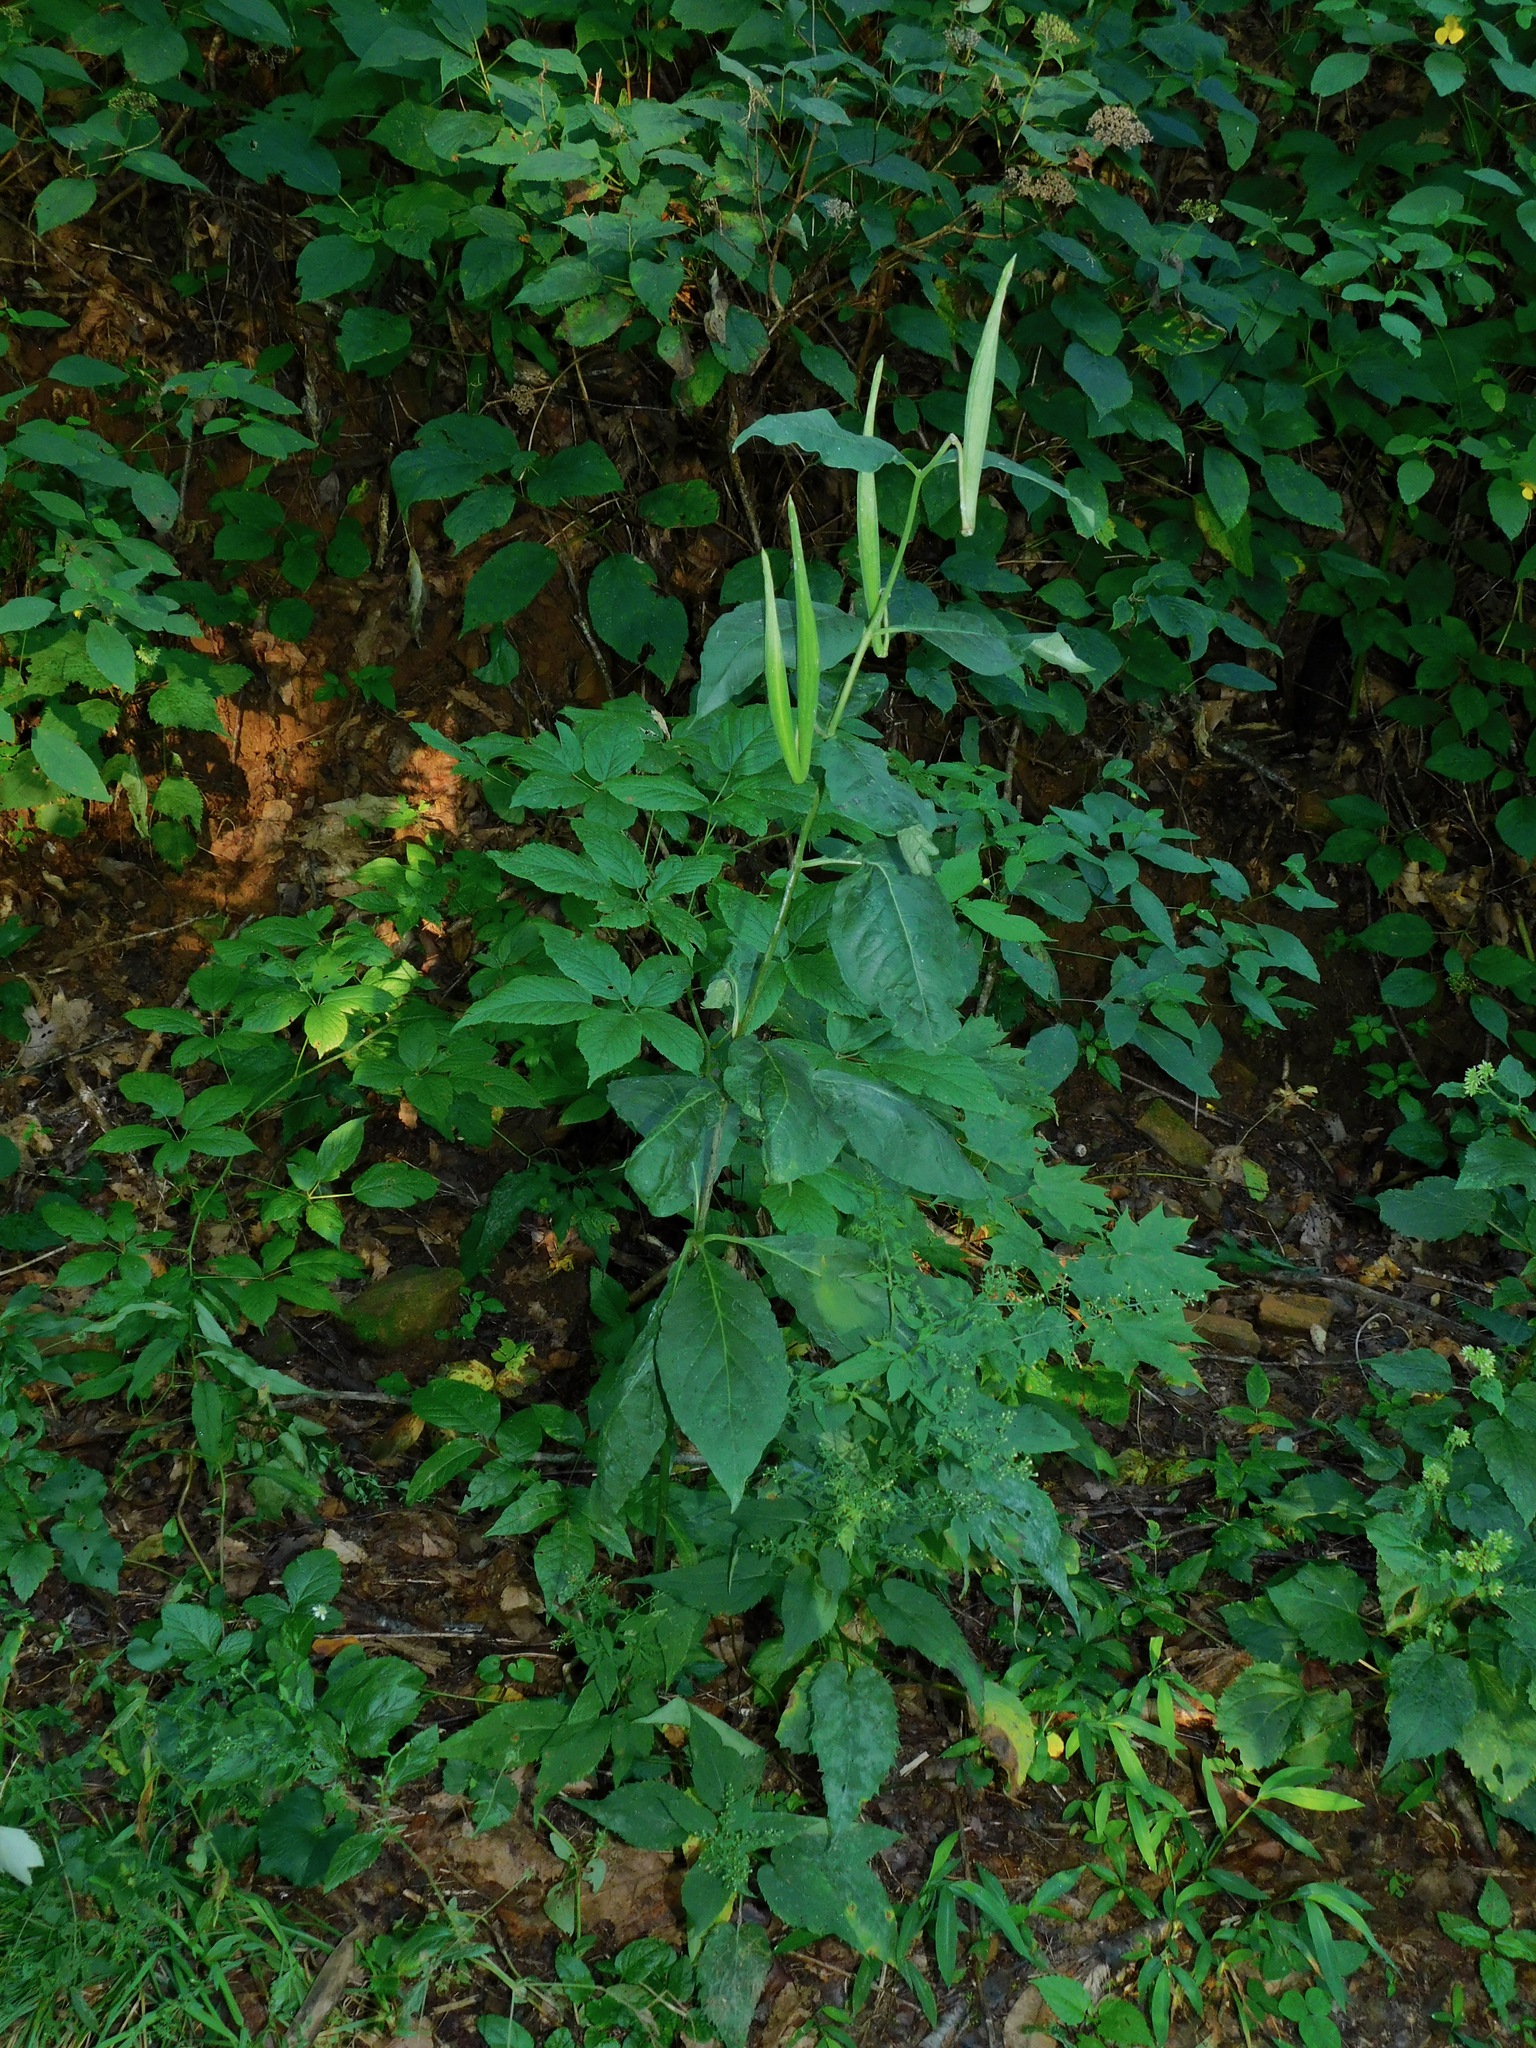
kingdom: Plantae
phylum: Tracheophyta
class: Magnoliopsida
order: Gentianales
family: Apocynaceae
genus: Asclepias
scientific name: Asclepias exaltata
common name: Poke milkweed
